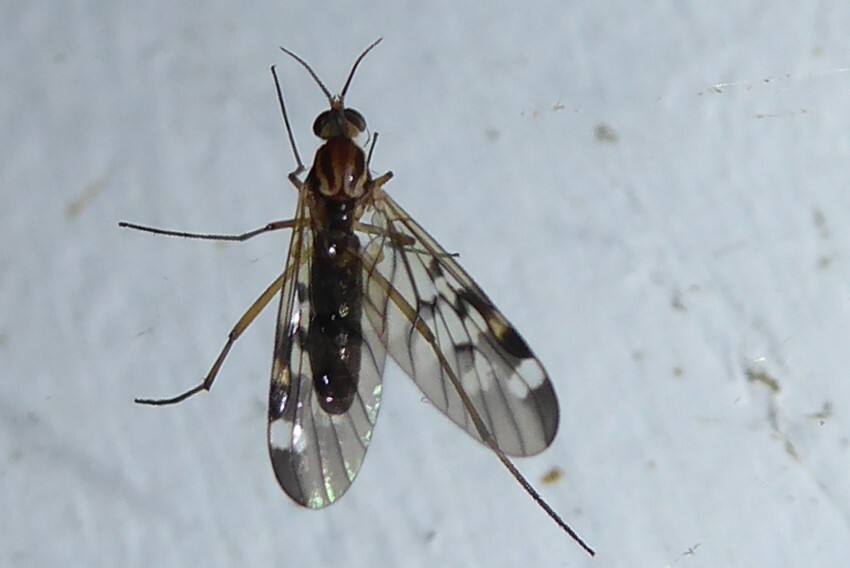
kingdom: Animalia
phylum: Arthropoda
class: Insecta
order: Diptera
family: Anisopodidae
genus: Sylvicola
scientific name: Sylvicola notatus
